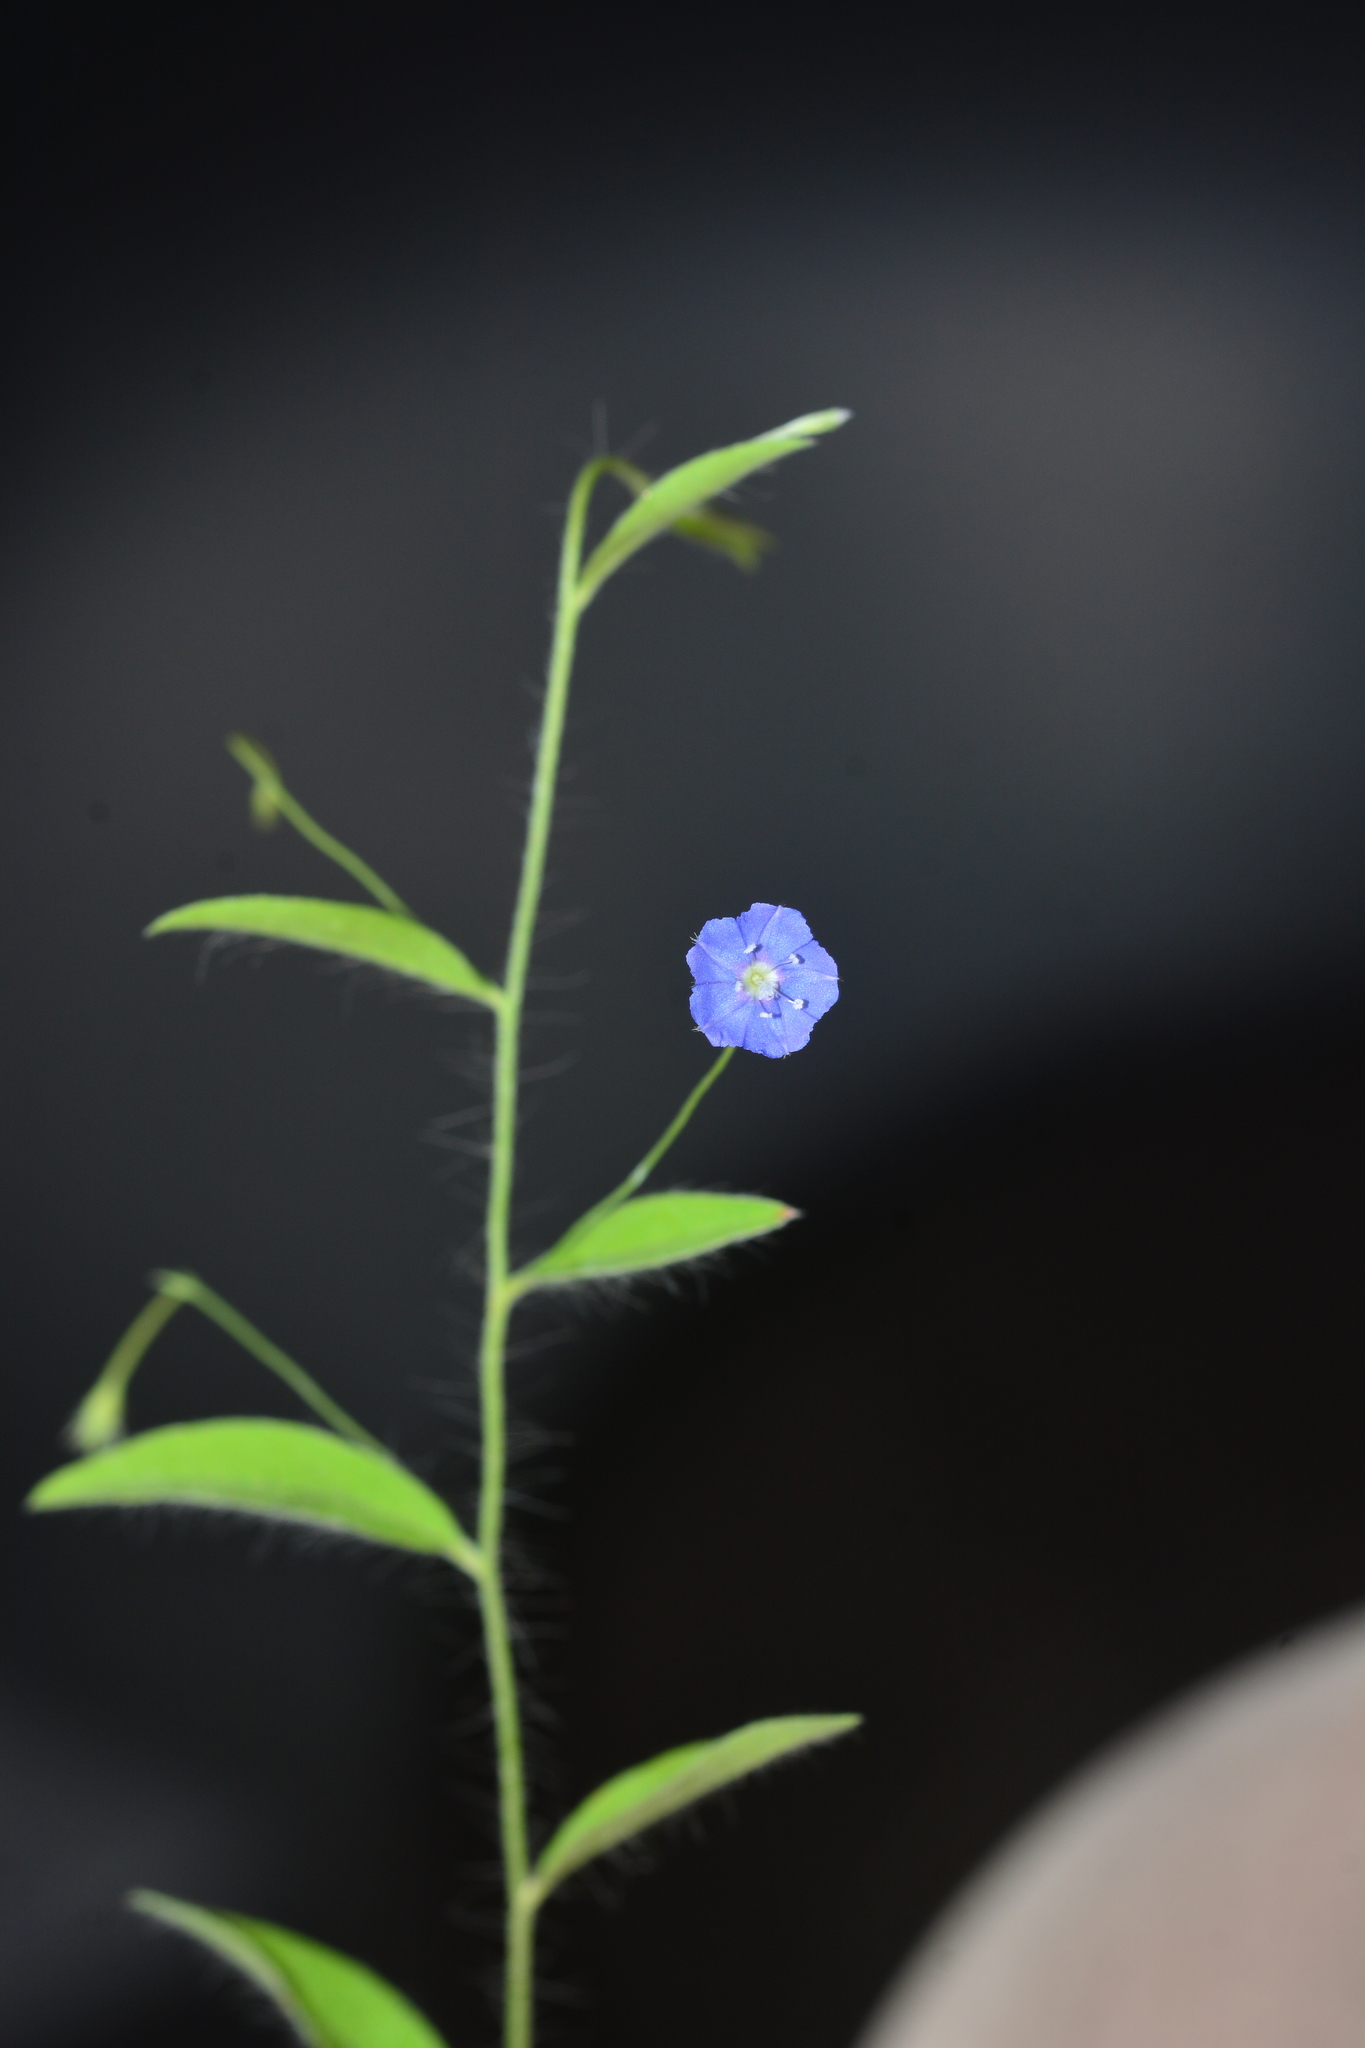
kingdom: Plantae
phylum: Tracheophyta
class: Magnoliopsida
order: Solanales
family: Convolvulaceae
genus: Evolvulus
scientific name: Evolvulus alsinoides
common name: Slender dwarf morning-glory
